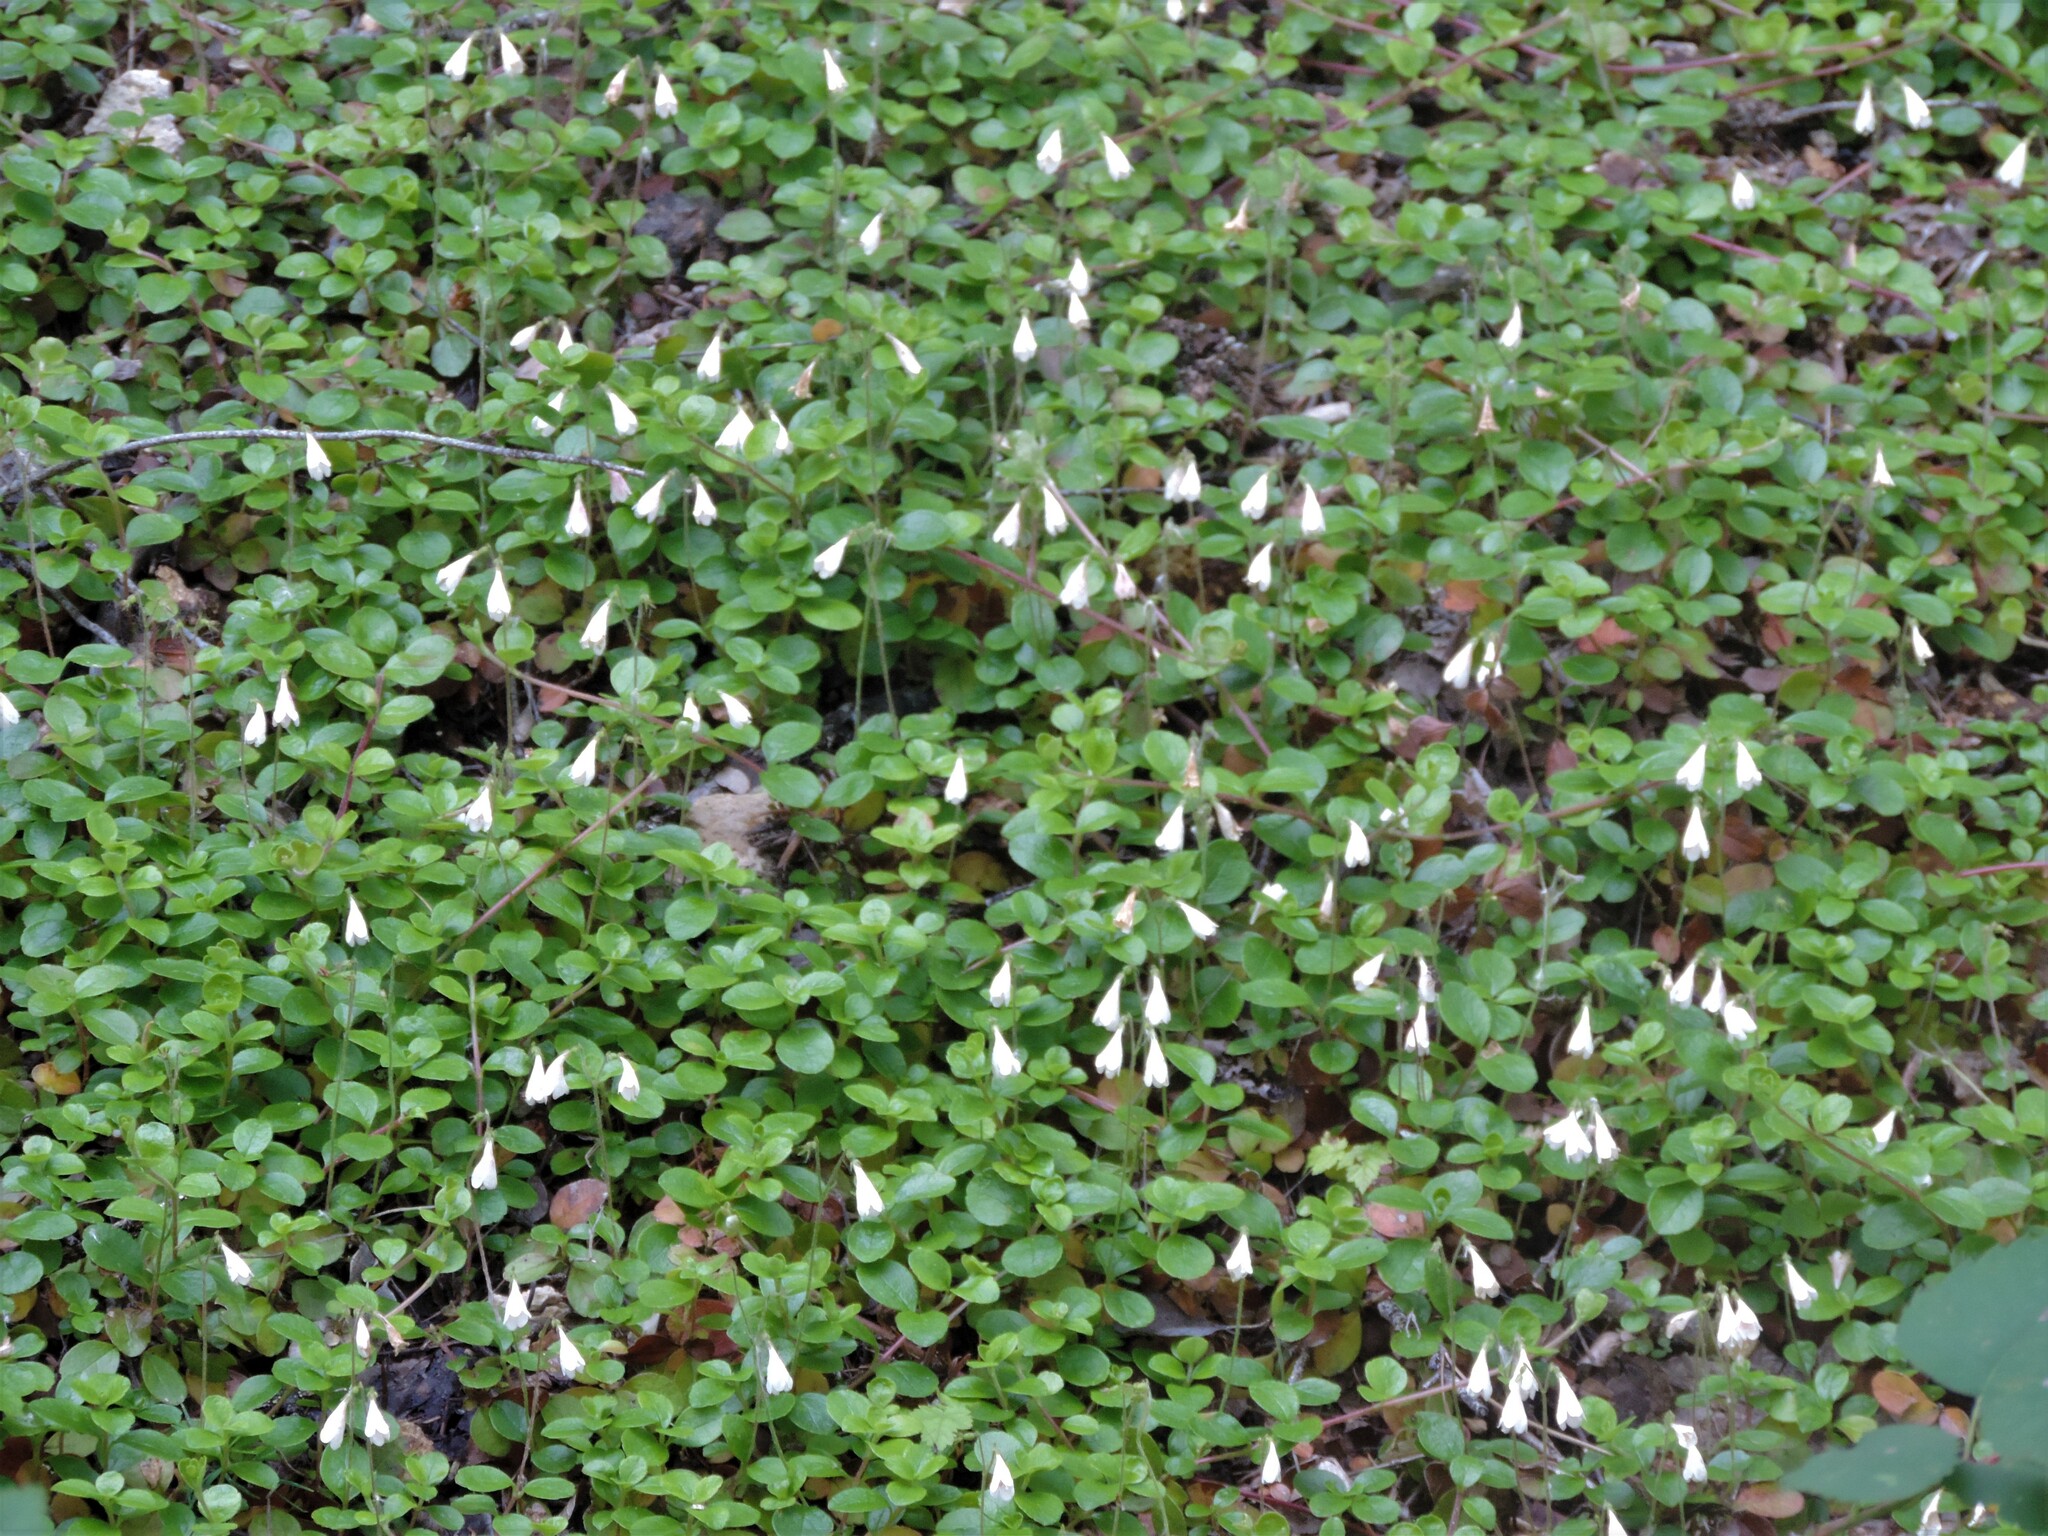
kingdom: Plantae
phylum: Tracheophyta
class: Magnoliopsida
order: Dipsacales
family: Caprifoliaceae
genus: Linnaea
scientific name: Linnaea borealis
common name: Twinflower
